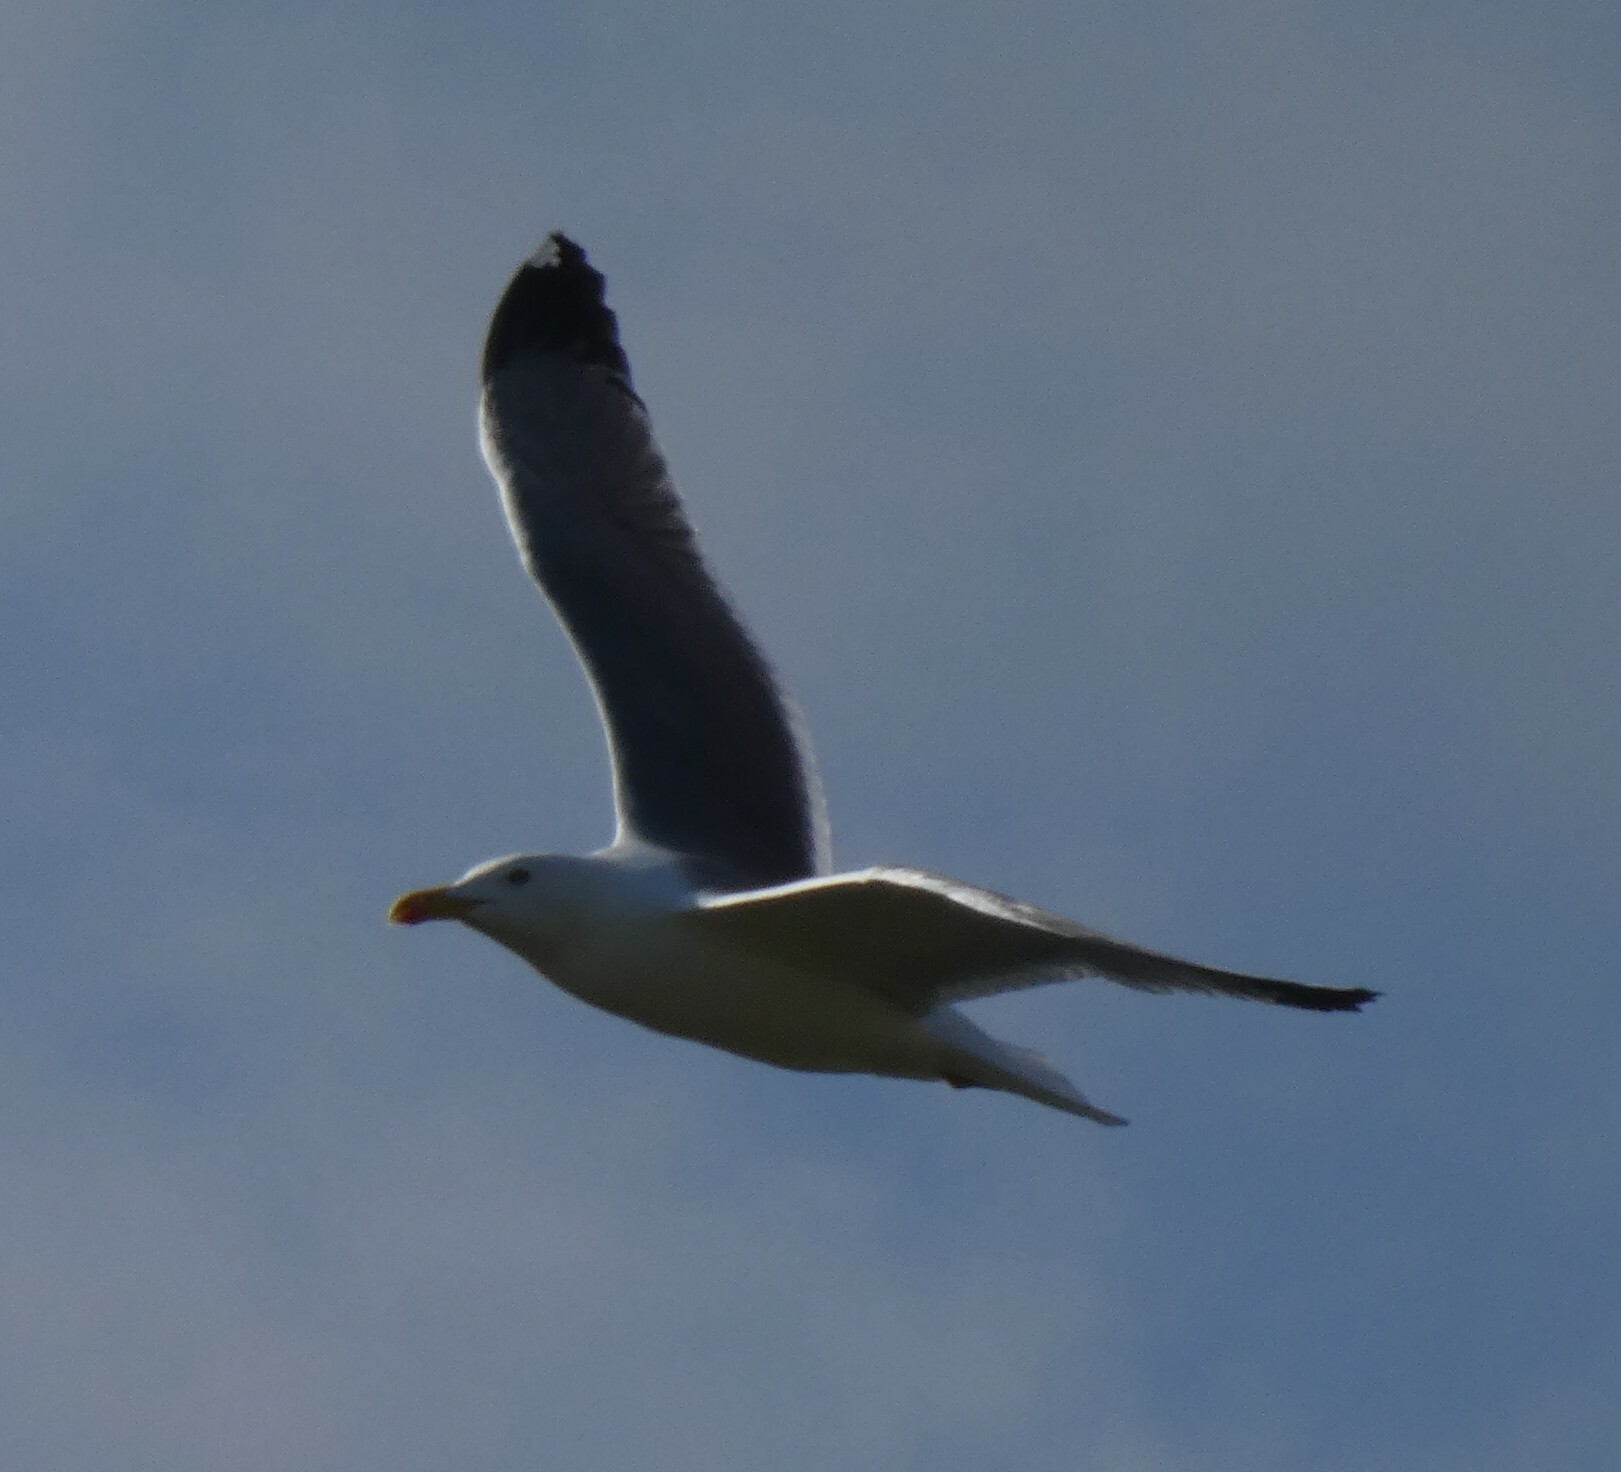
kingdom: Animalia
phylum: Chordata
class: Aves
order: Charadriiformes
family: Laridae
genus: Larus
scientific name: Larus michahellis
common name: Yellow-legged gull
